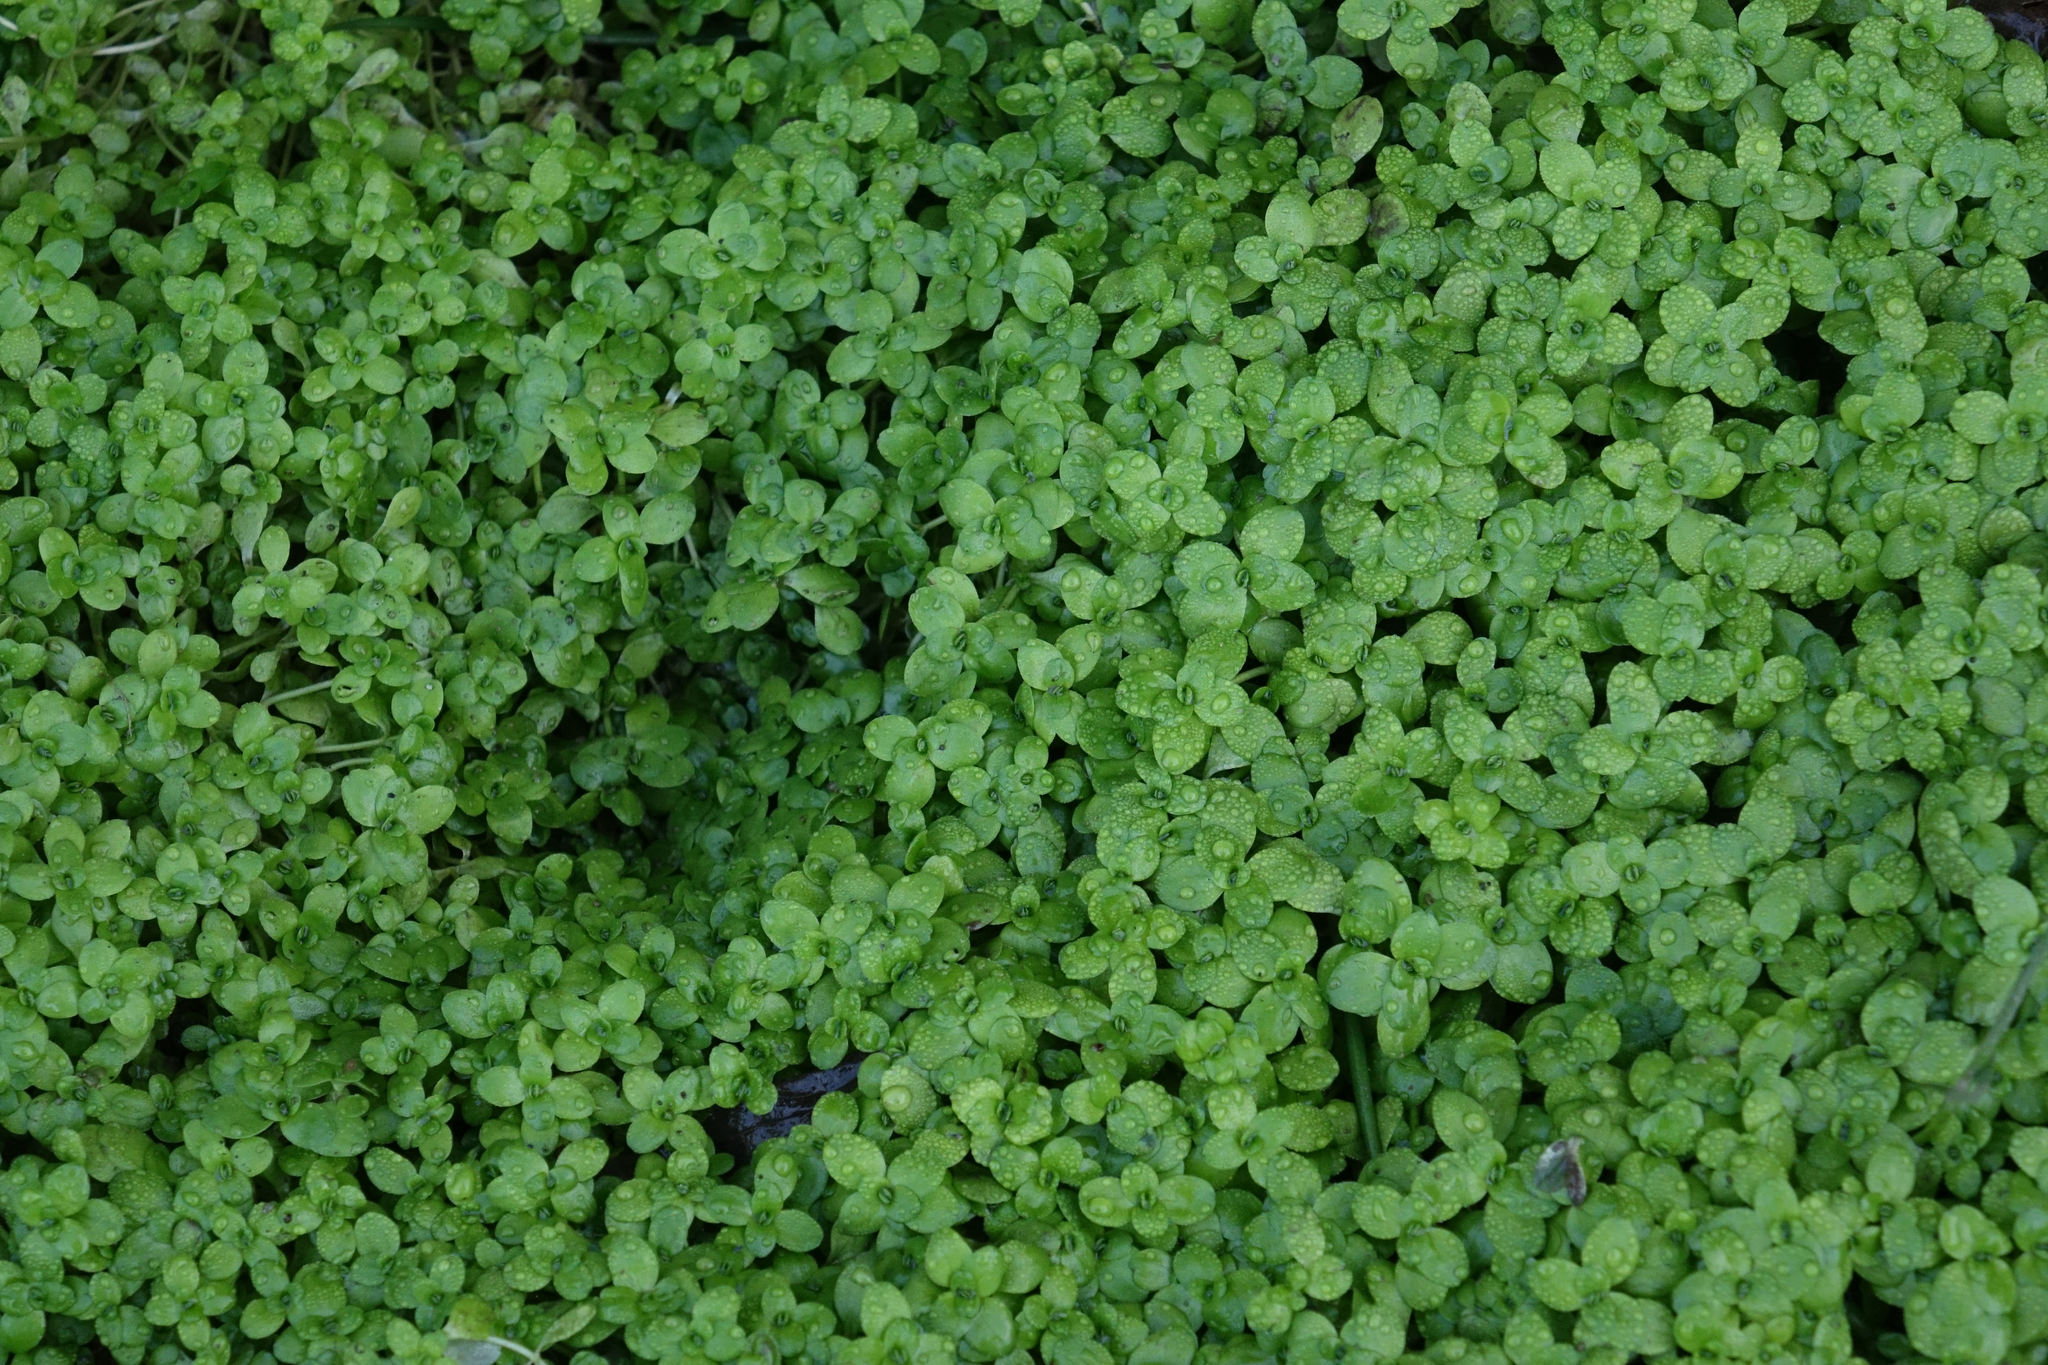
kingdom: Plantae
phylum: Tracheophyta
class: Magnoliopsida
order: Lamiales
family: Plantaginaceae
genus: Callitriche
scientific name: Callitriche stagnalis
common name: Common water-starwort
